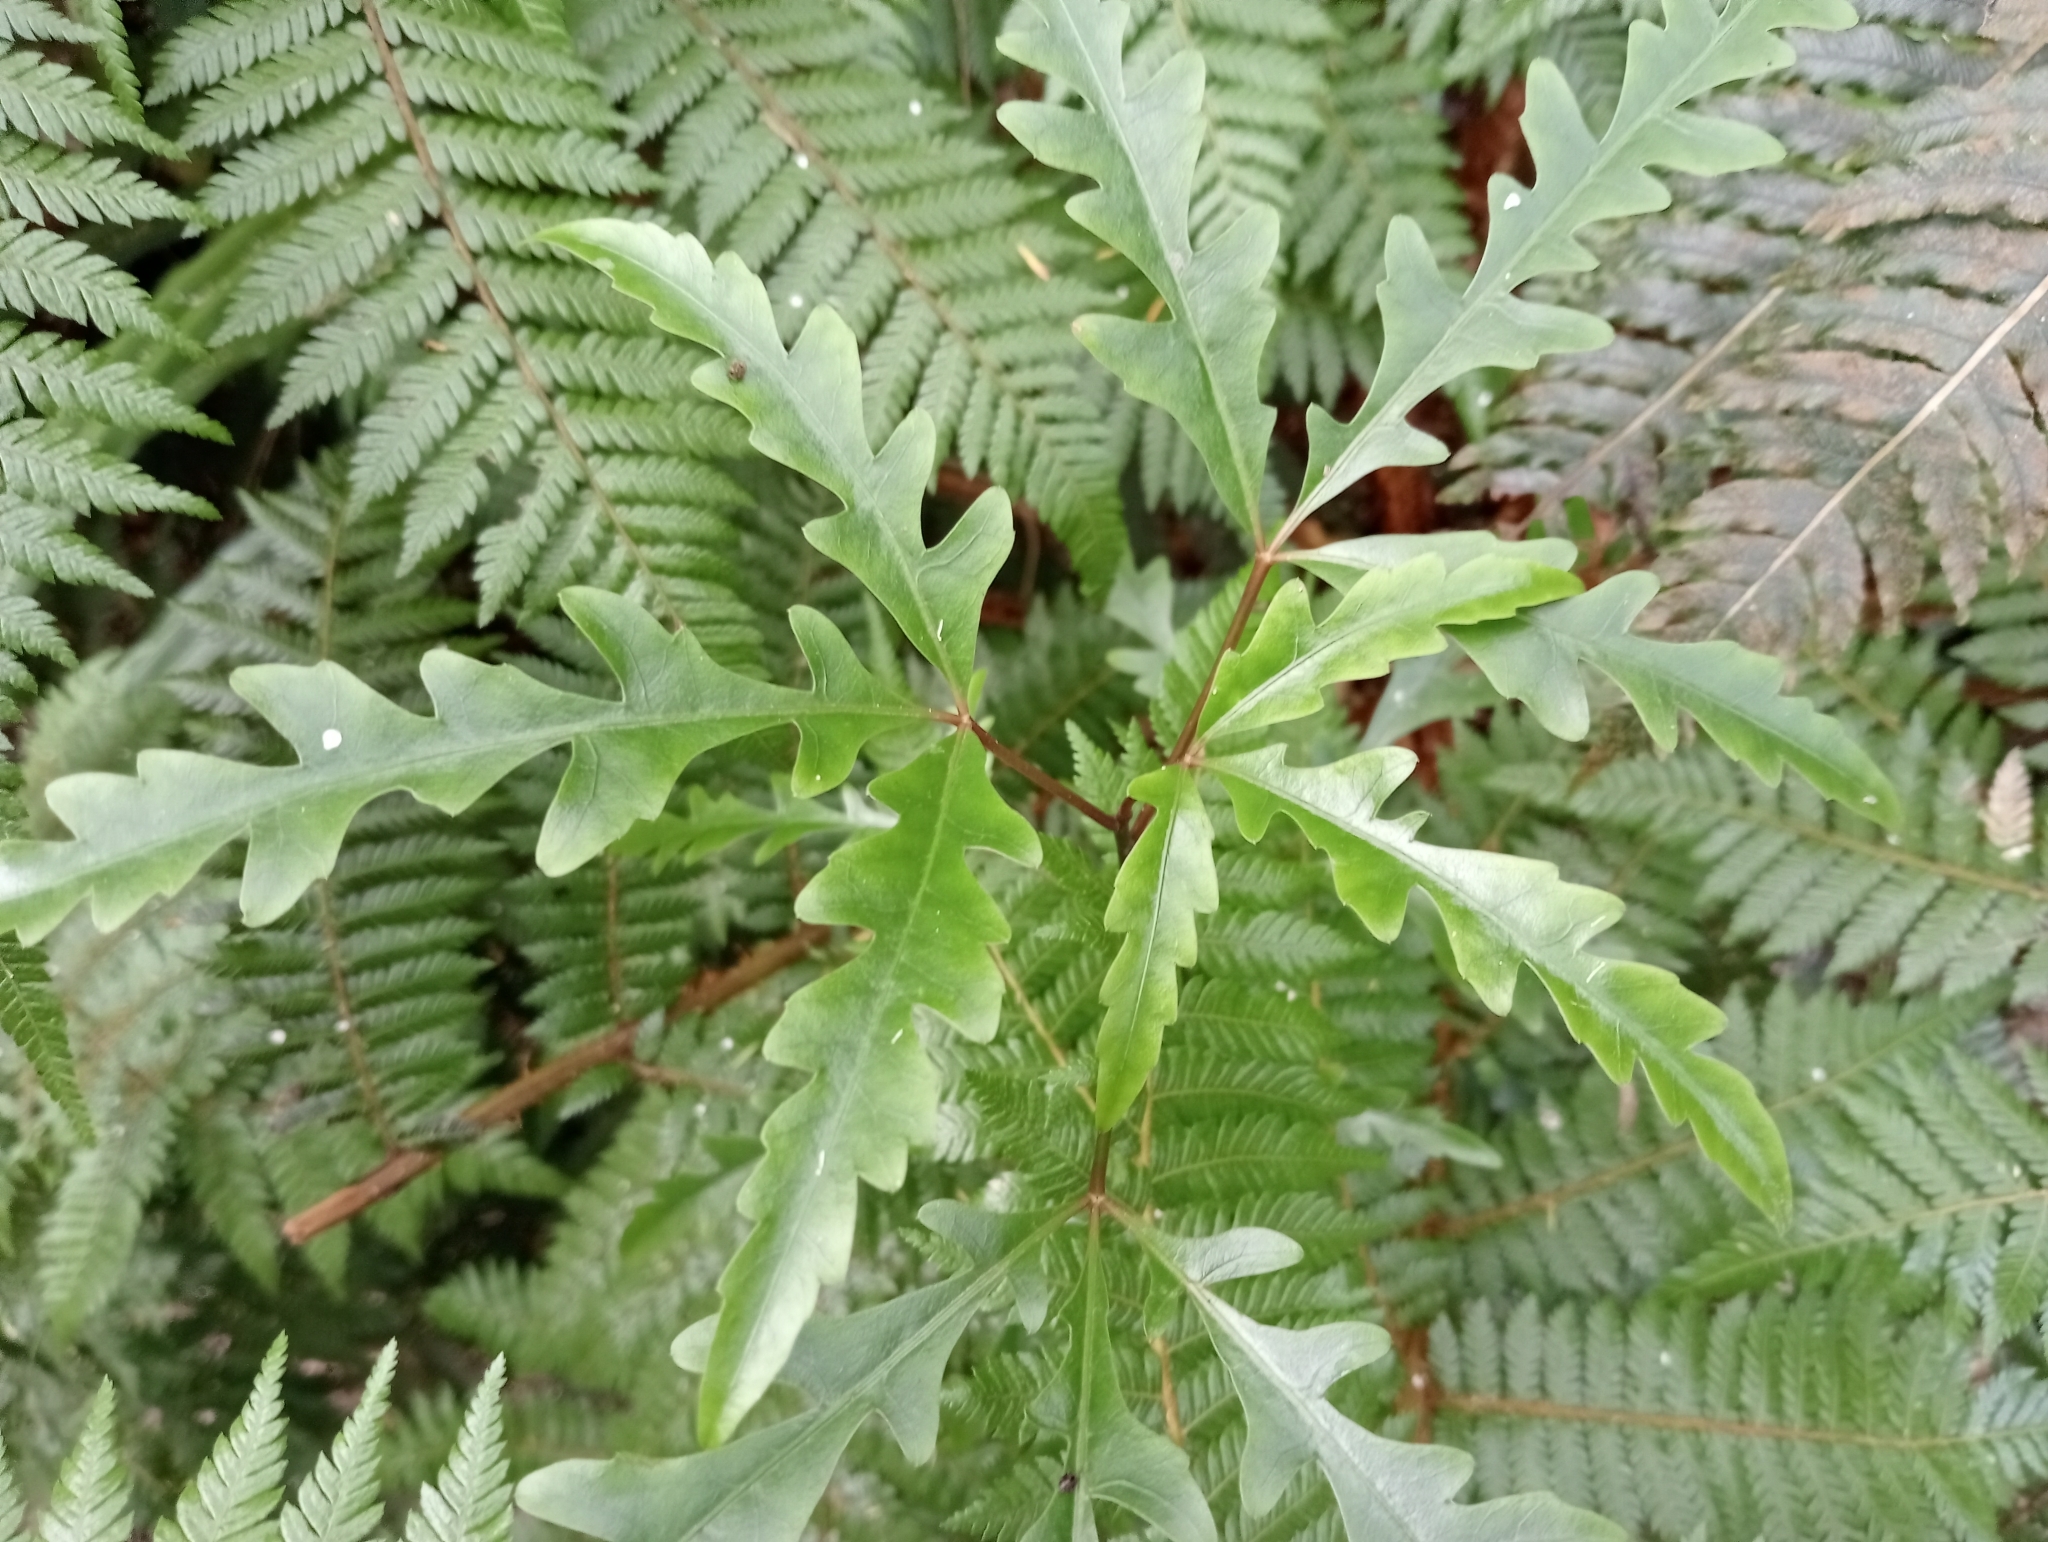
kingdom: Plantae
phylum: Tracheophyta
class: Magnoliopsida
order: Apiales
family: Araliaceae
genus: Raukaua
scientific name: Raukaua edgerleyi
